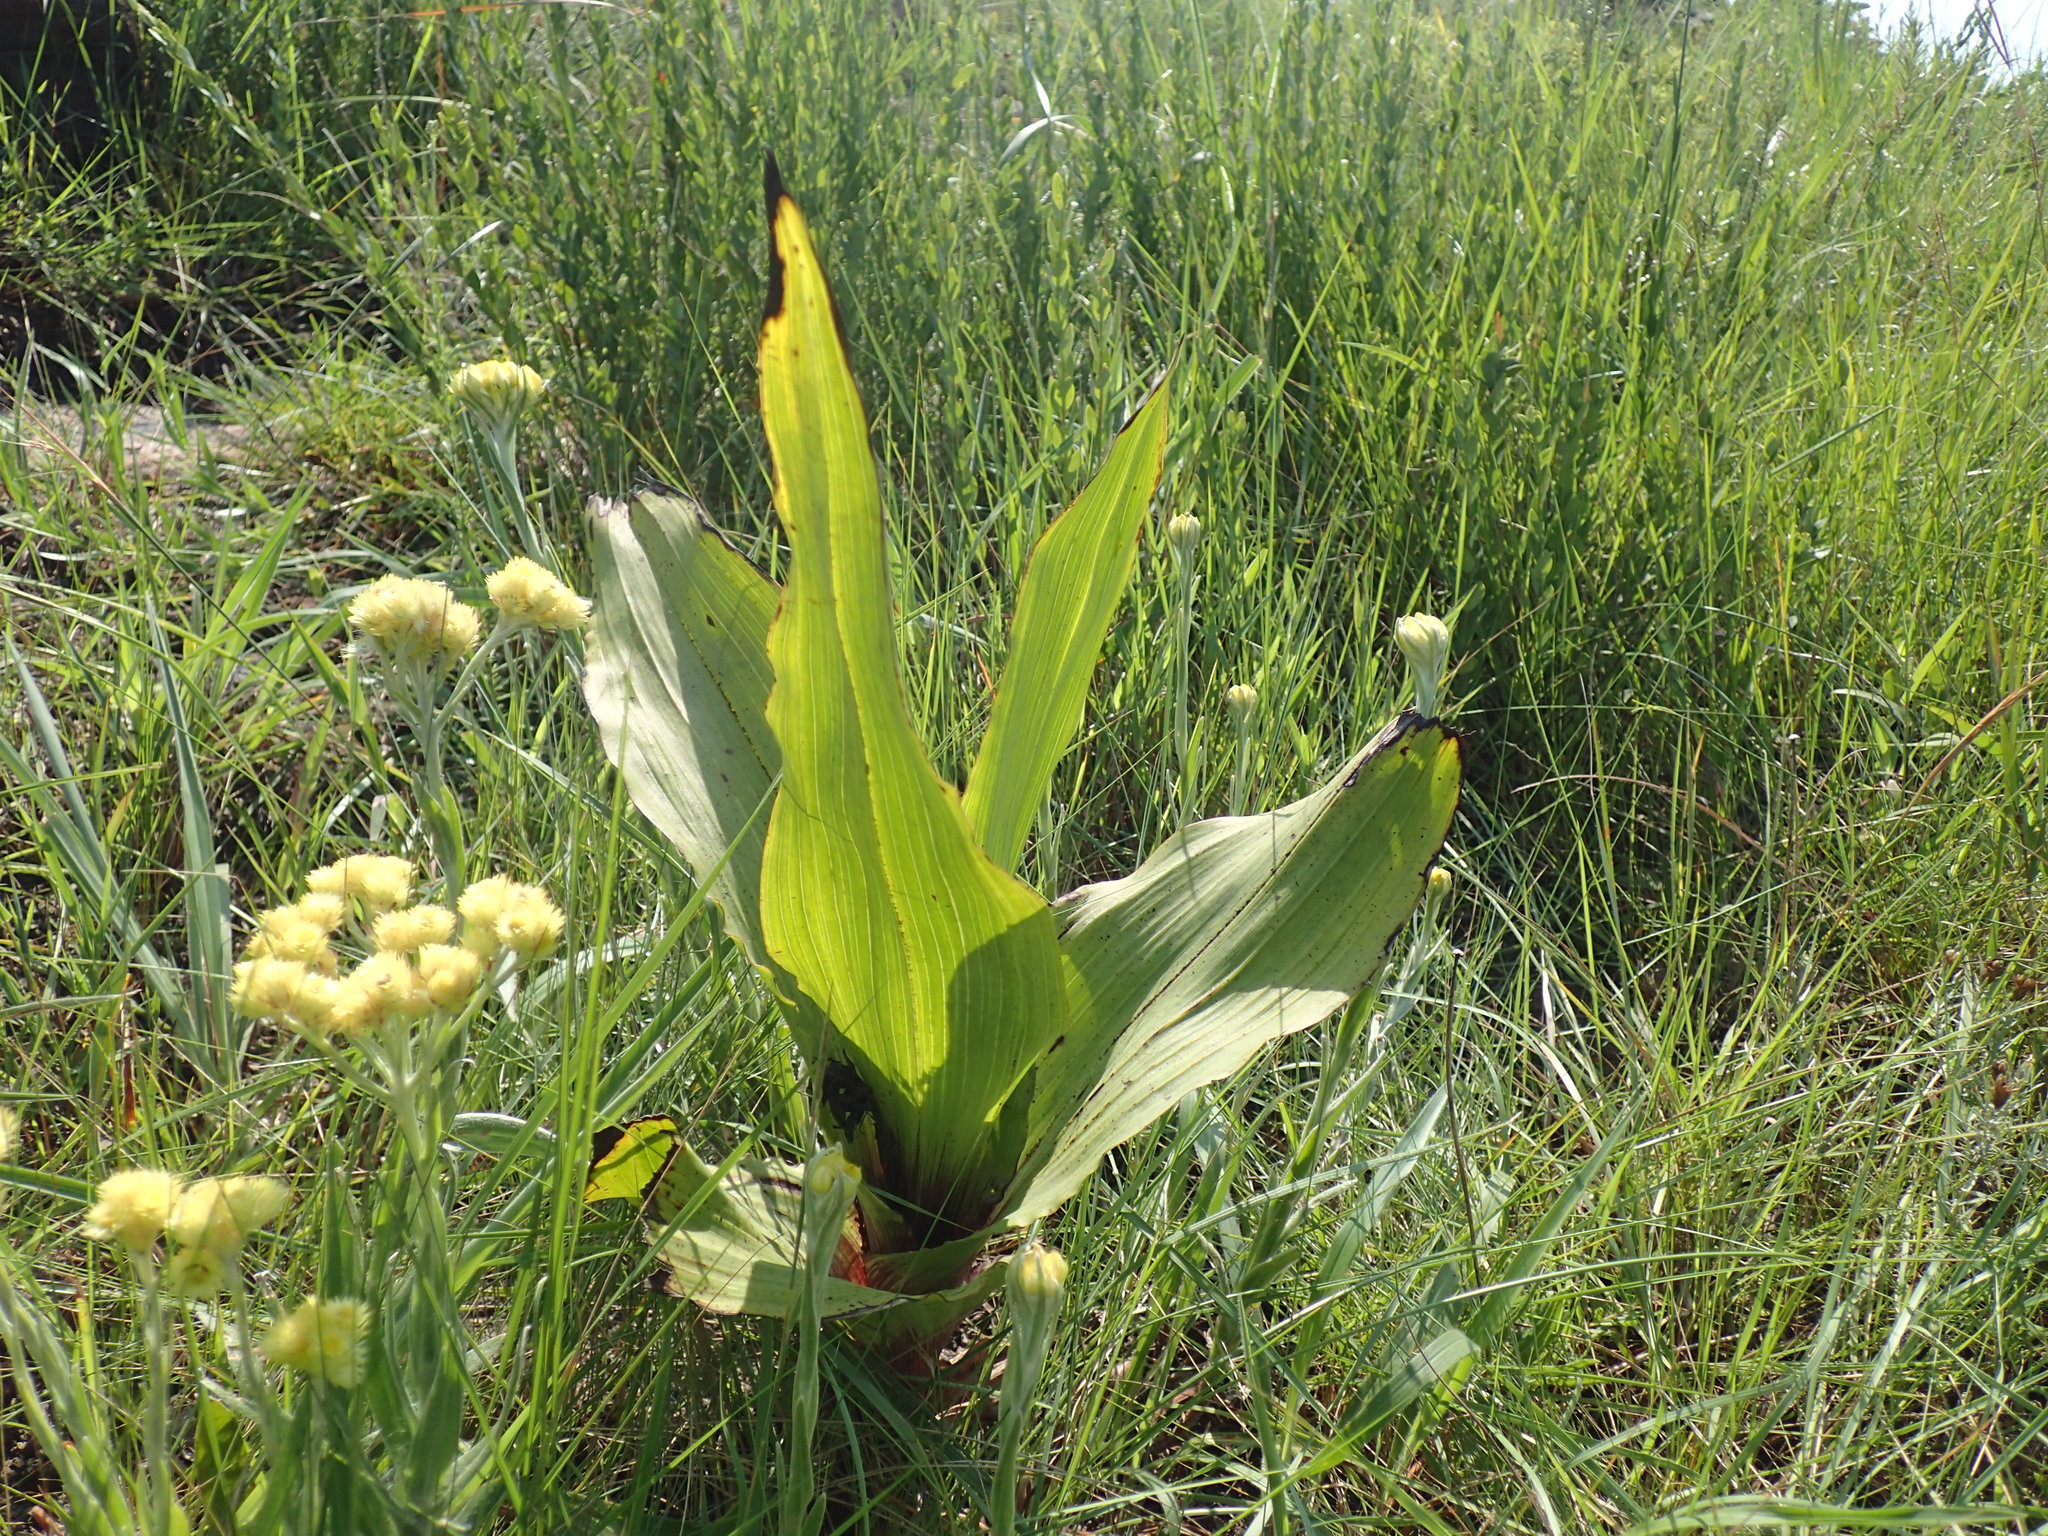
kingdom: Plantae
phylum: Tracheophyta
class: Liliopsida
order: Asparagales
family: Hypoxidaceae
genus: Hypoxis
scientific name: Hypoxis colchicifolia
